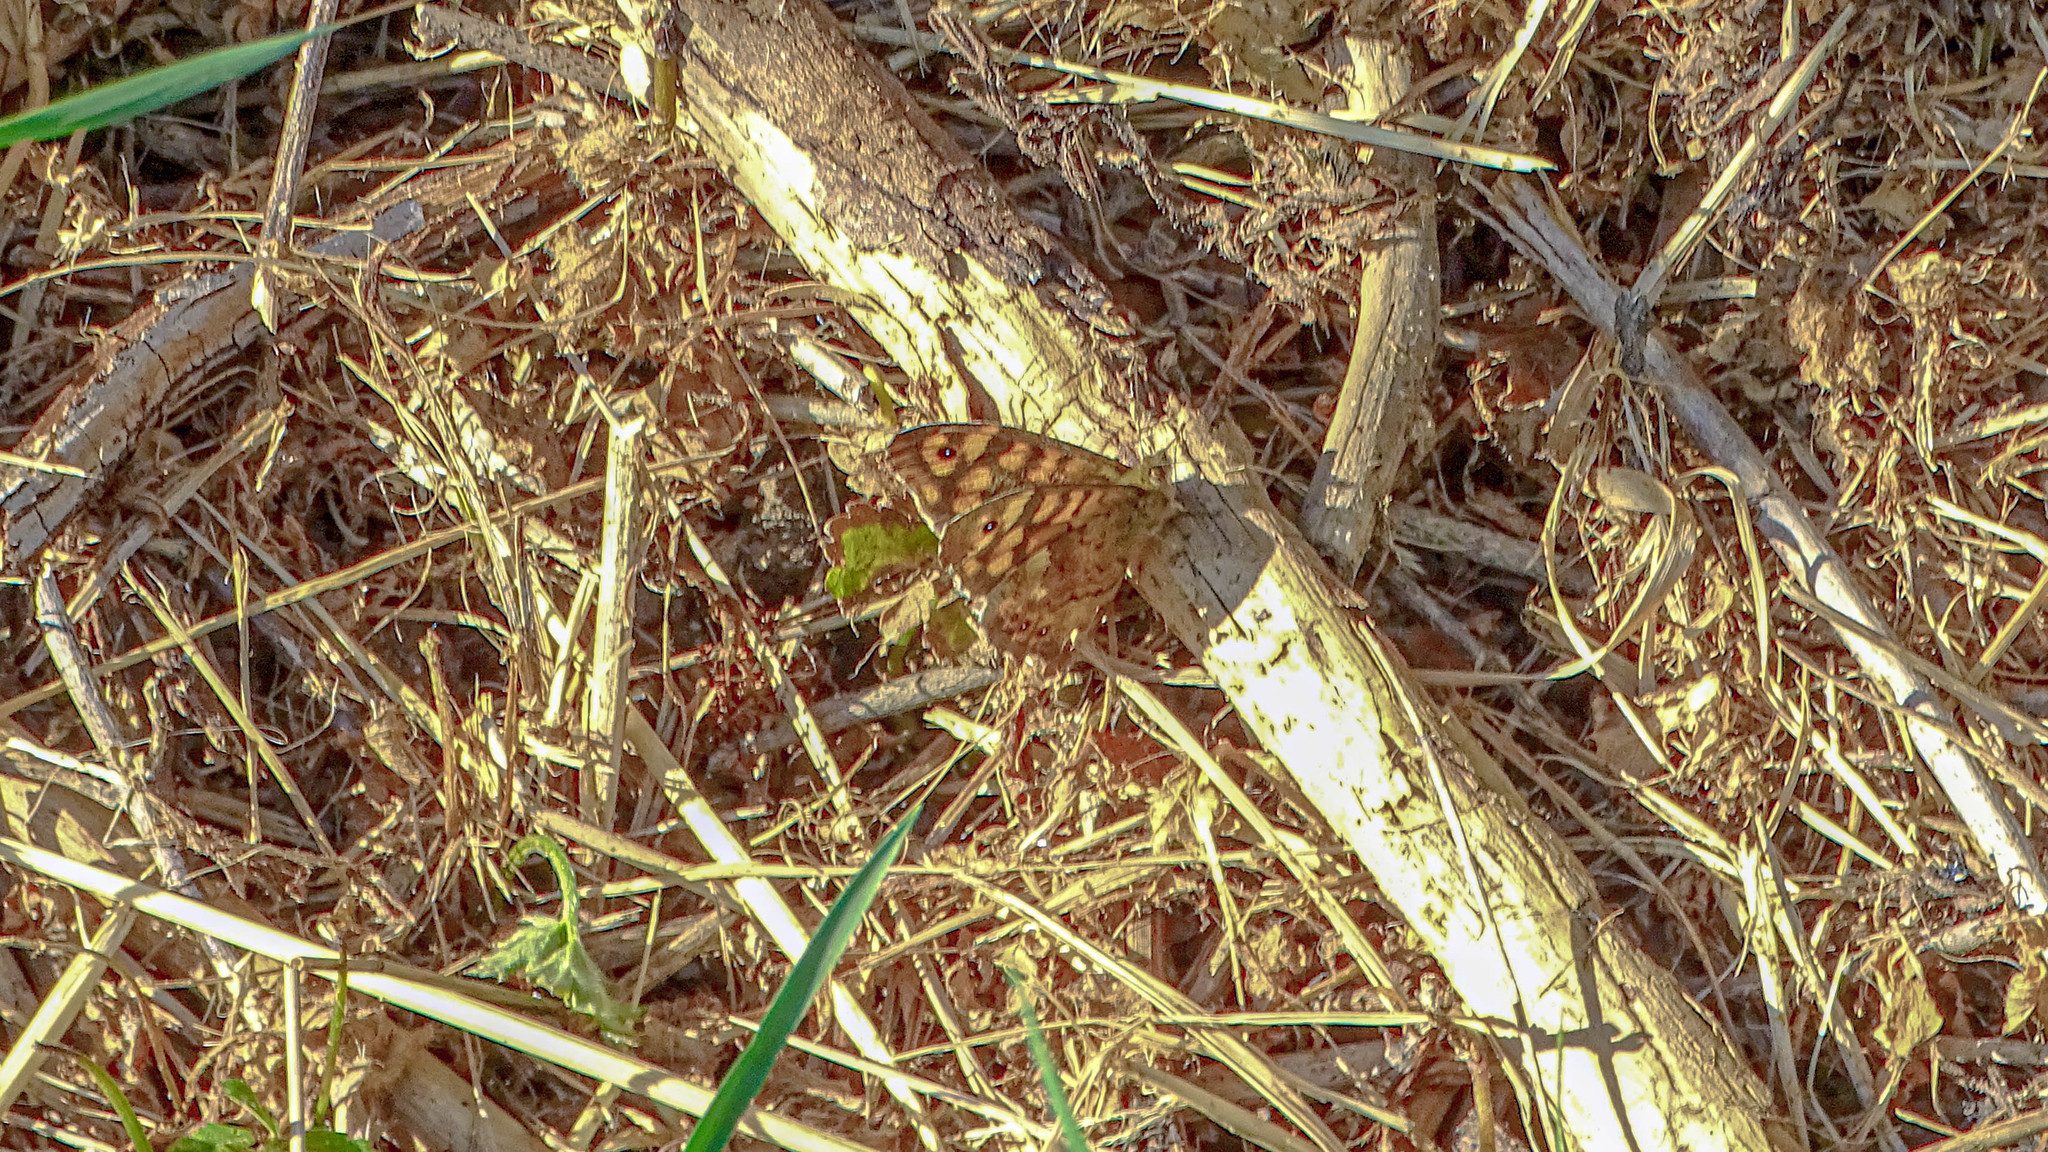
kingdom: Animalia
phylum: Arthropoda
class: Insecta
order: Lepidoptera
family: Nymphalidae
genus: Pararge
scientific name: Pararge aegeria
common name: Speckled wood
